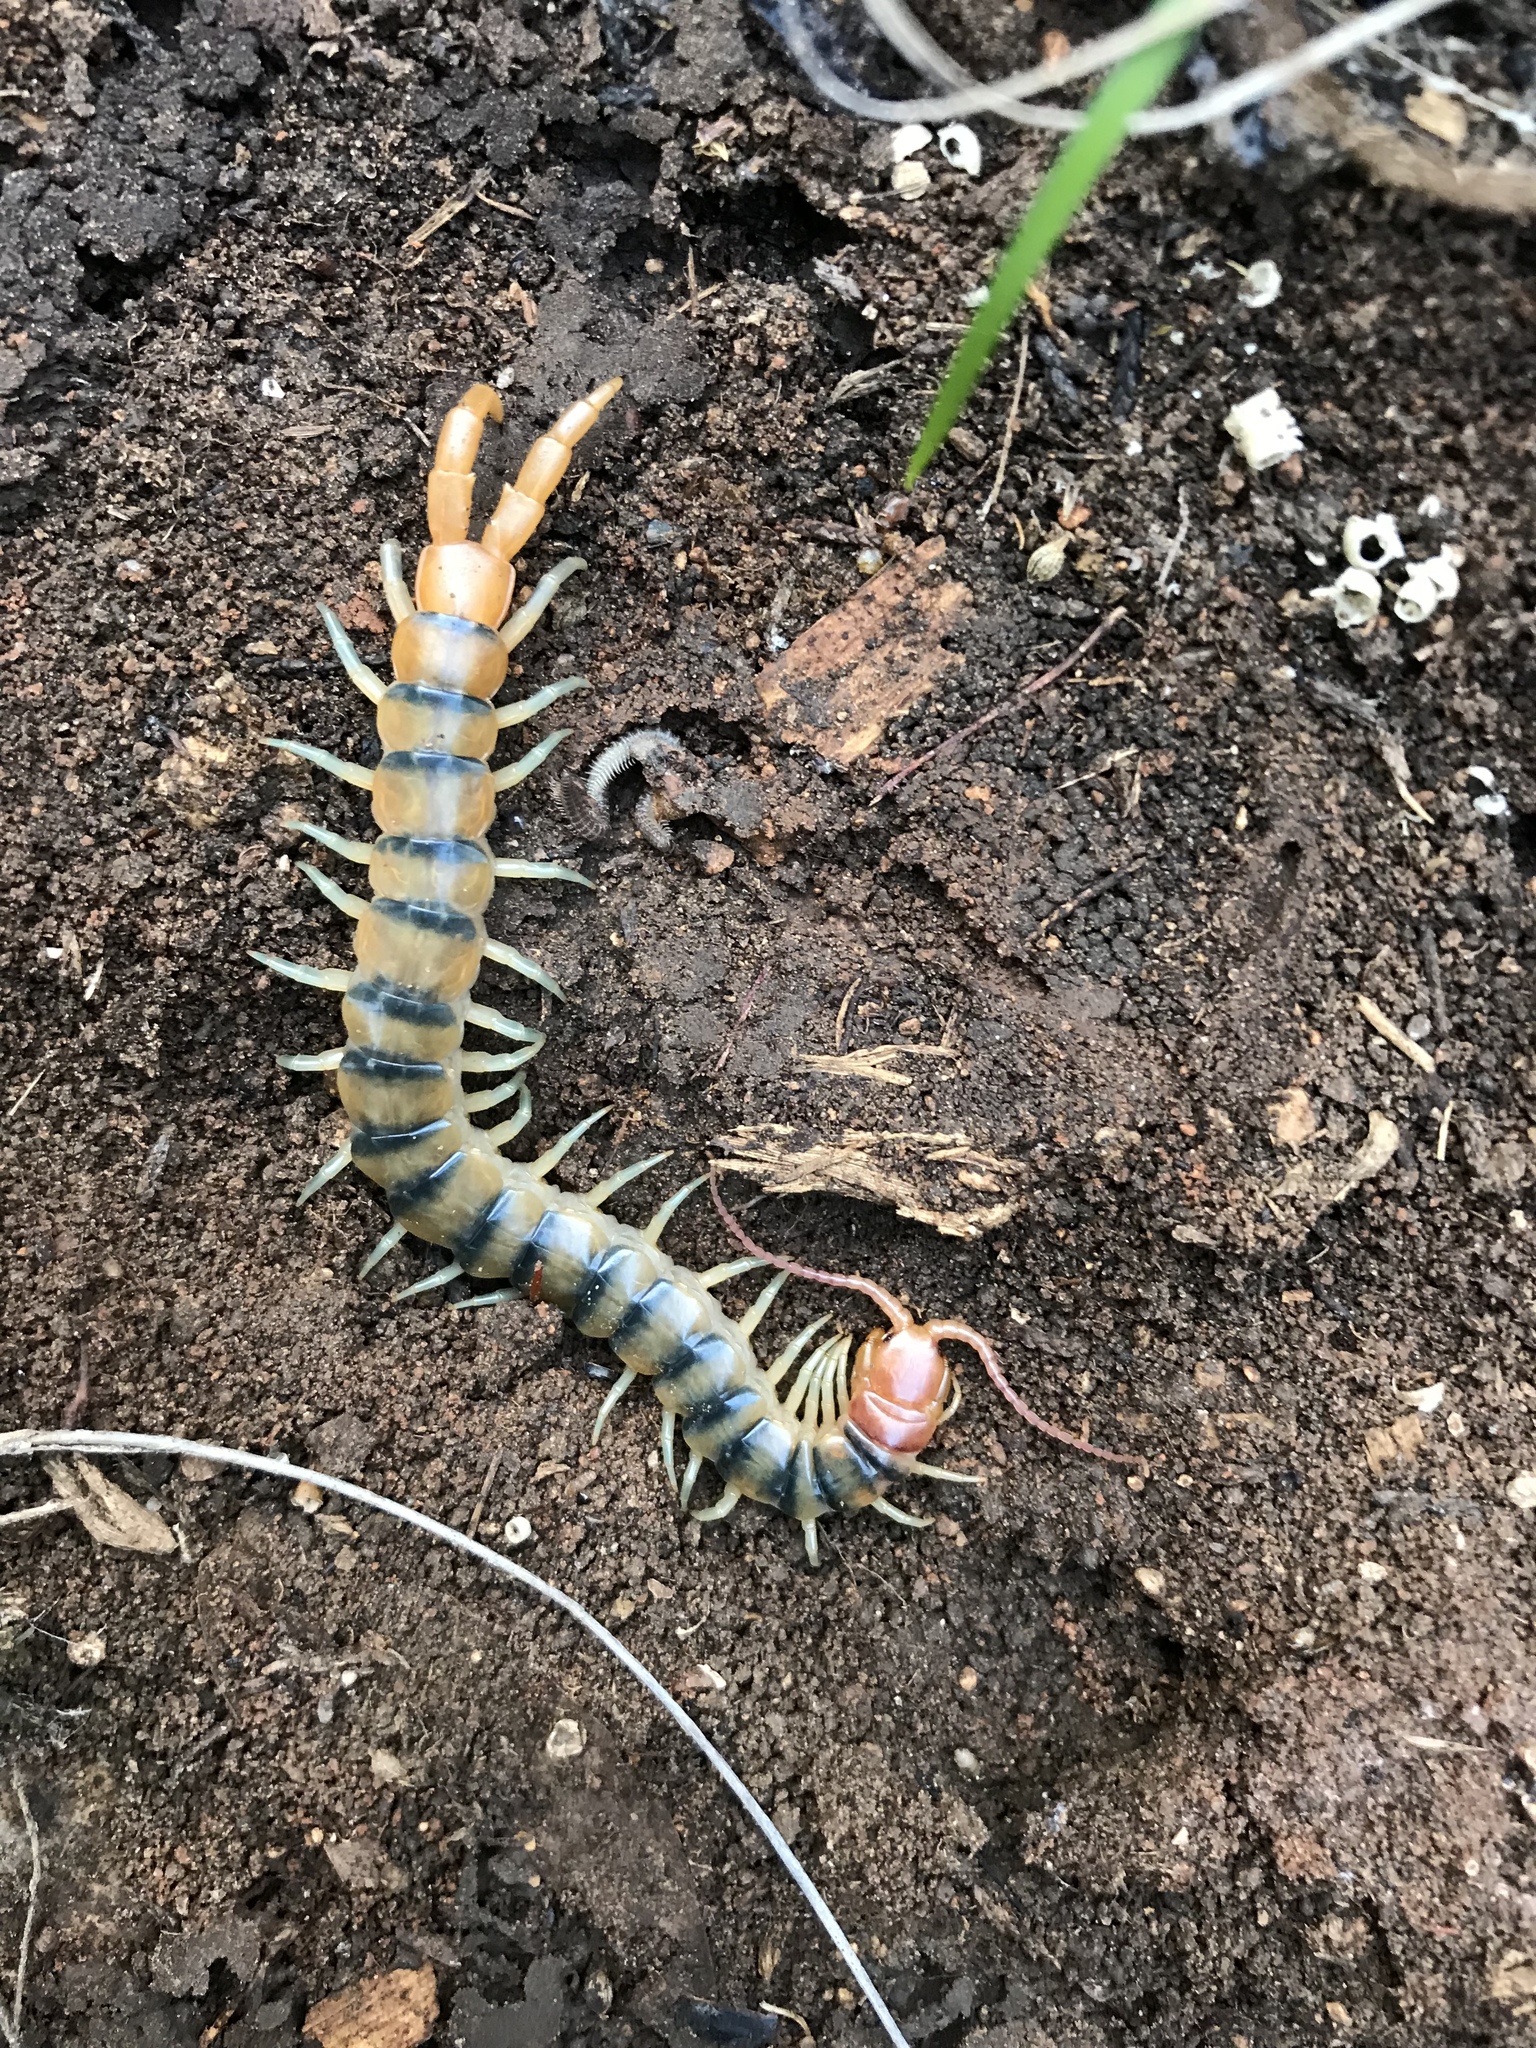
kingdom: Animalia
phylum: Arthropoda
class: Chilopoda
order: Scolopendromorpha
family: Scolopendridae
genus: Scolopendra
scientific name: Scolopendra polymorpha
